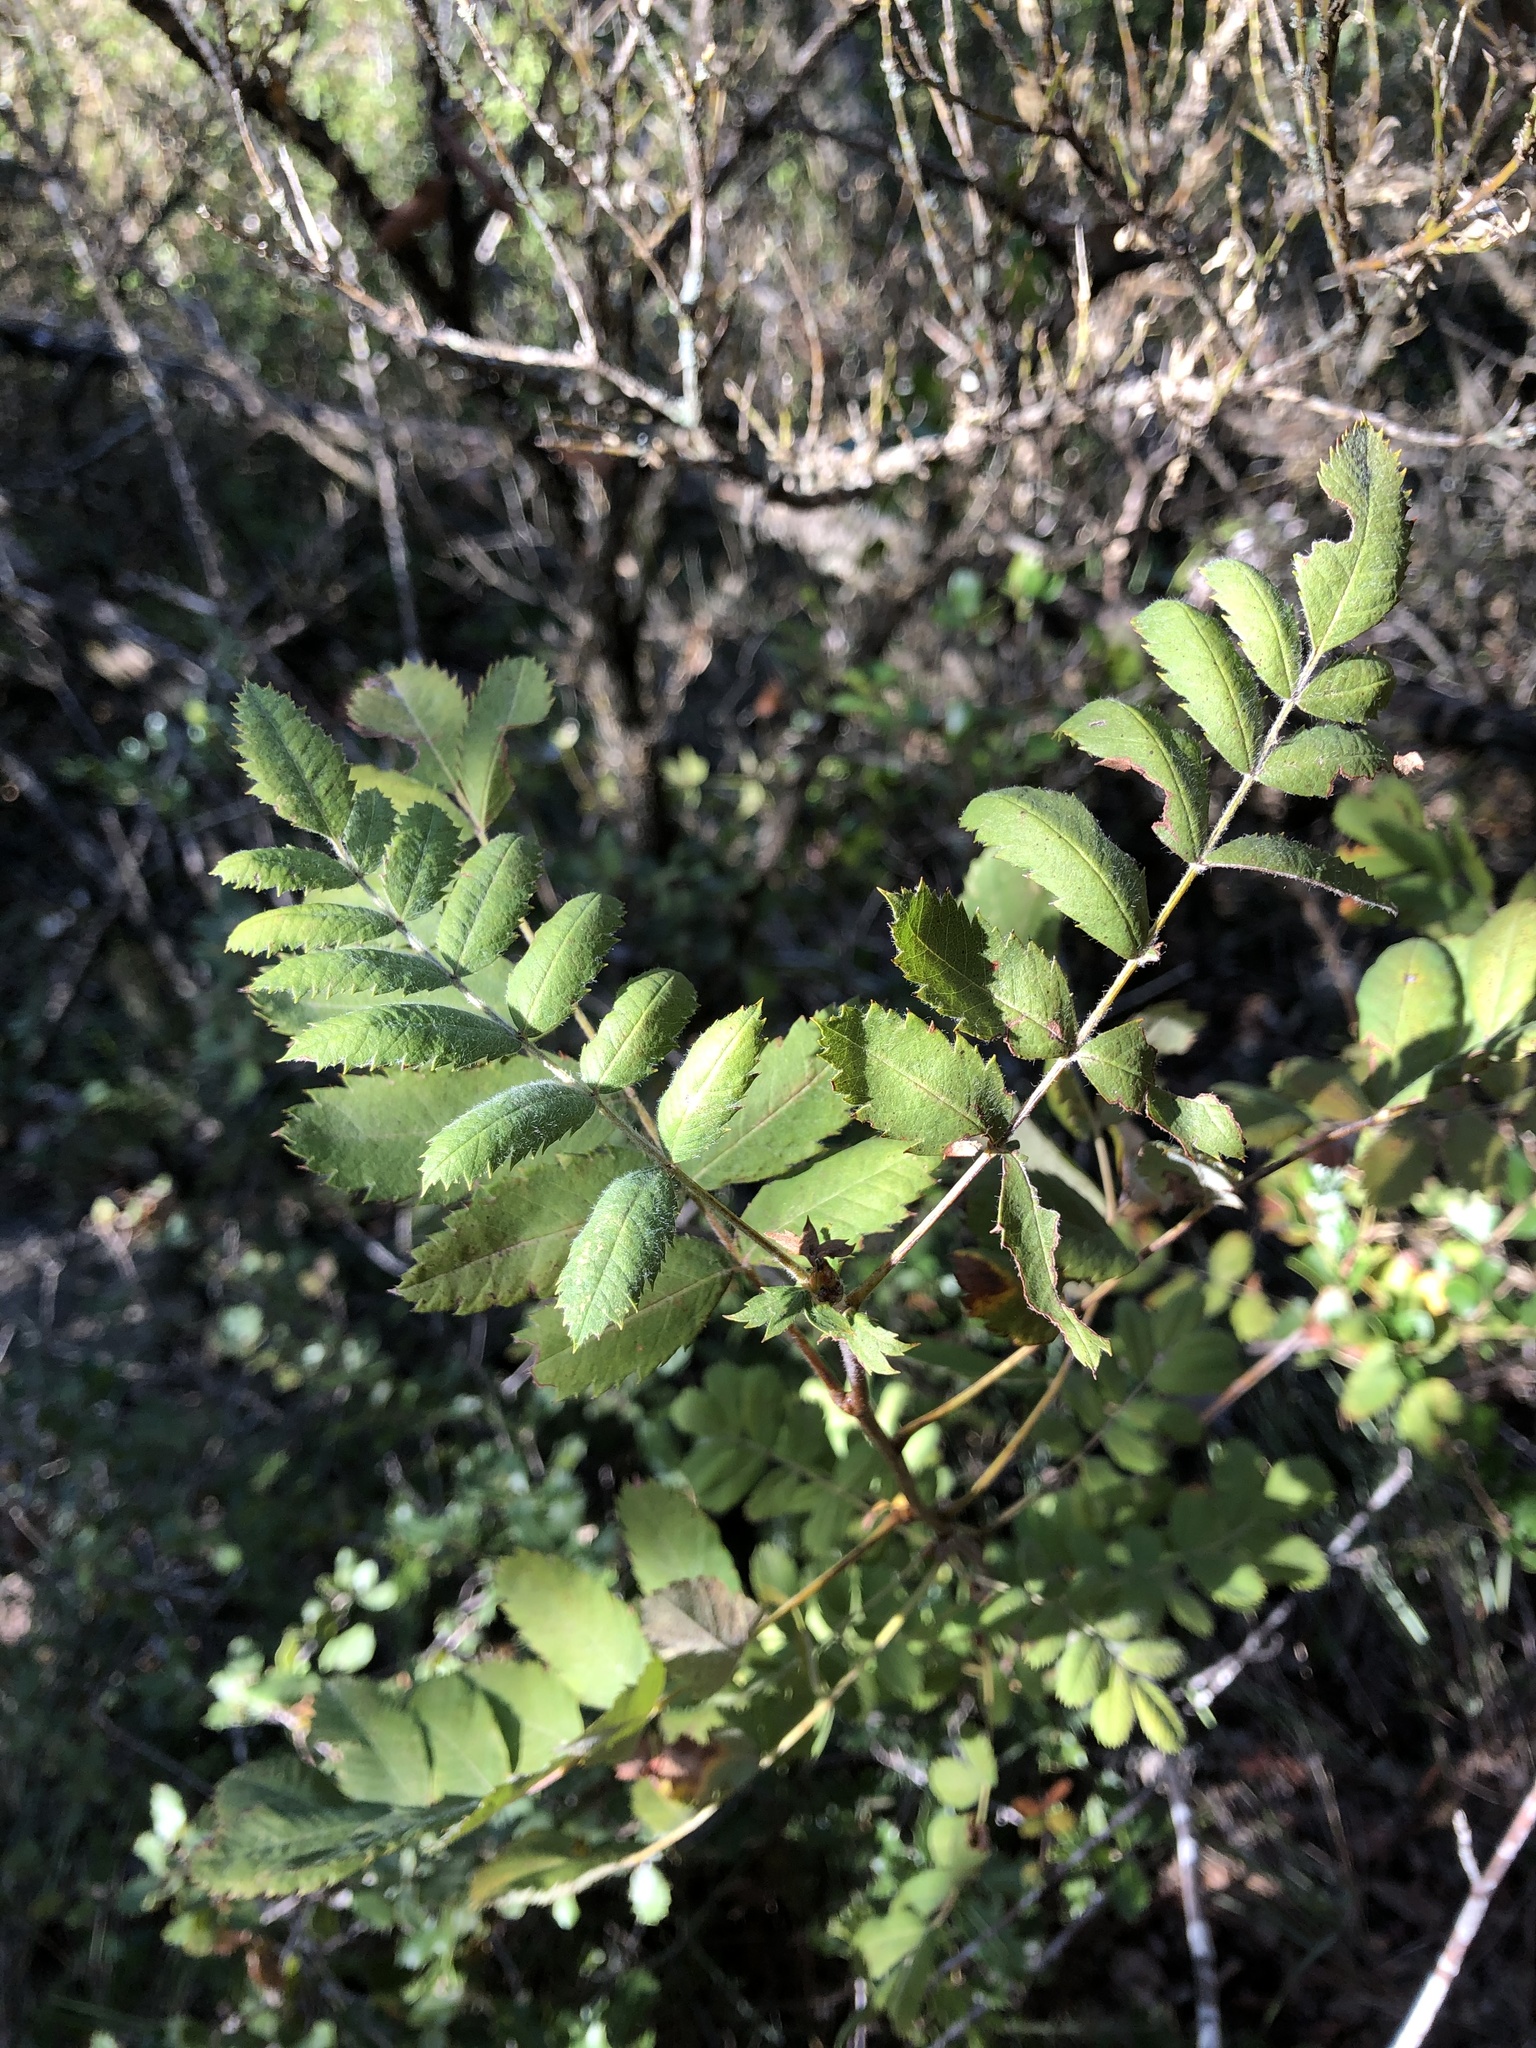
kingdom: Plantae
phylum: Tracheophyta
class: Magnoliopsida
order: Rosales
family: Rosaceae
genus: Cormus
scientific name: Cormus domestica
